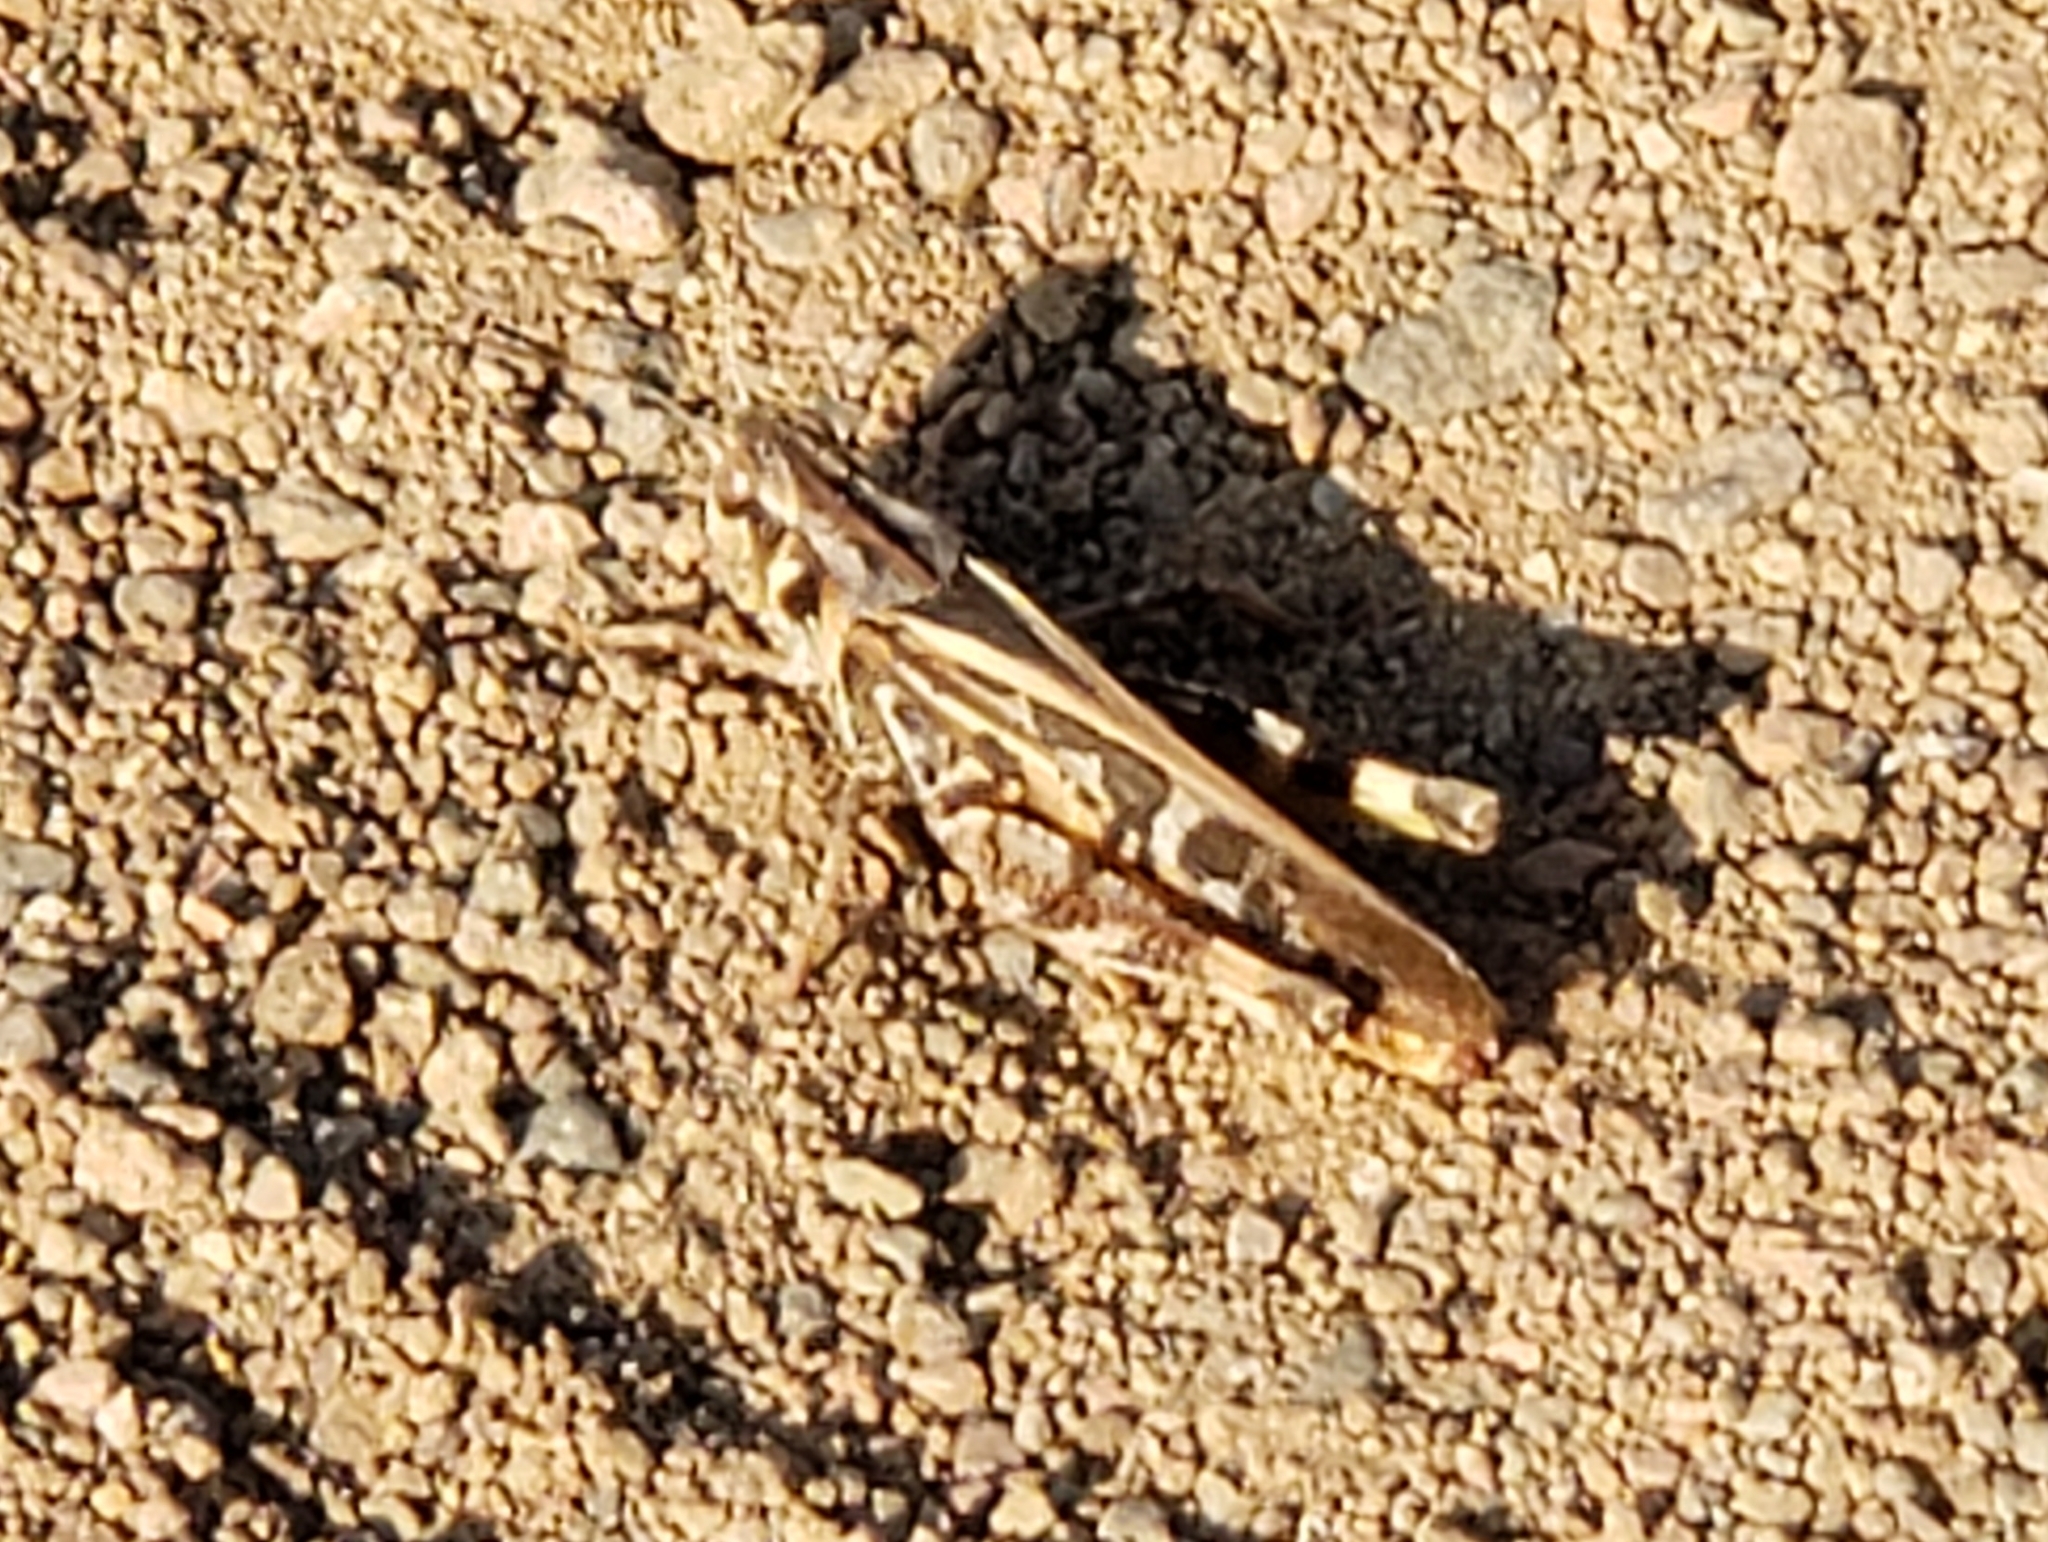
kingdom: Animalia
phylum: Arthropoda
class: Insecta
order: Orthoptera
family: Acrididae
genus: Camnula
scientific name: Camnula pellucida
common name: Clear-winged grasshopper
